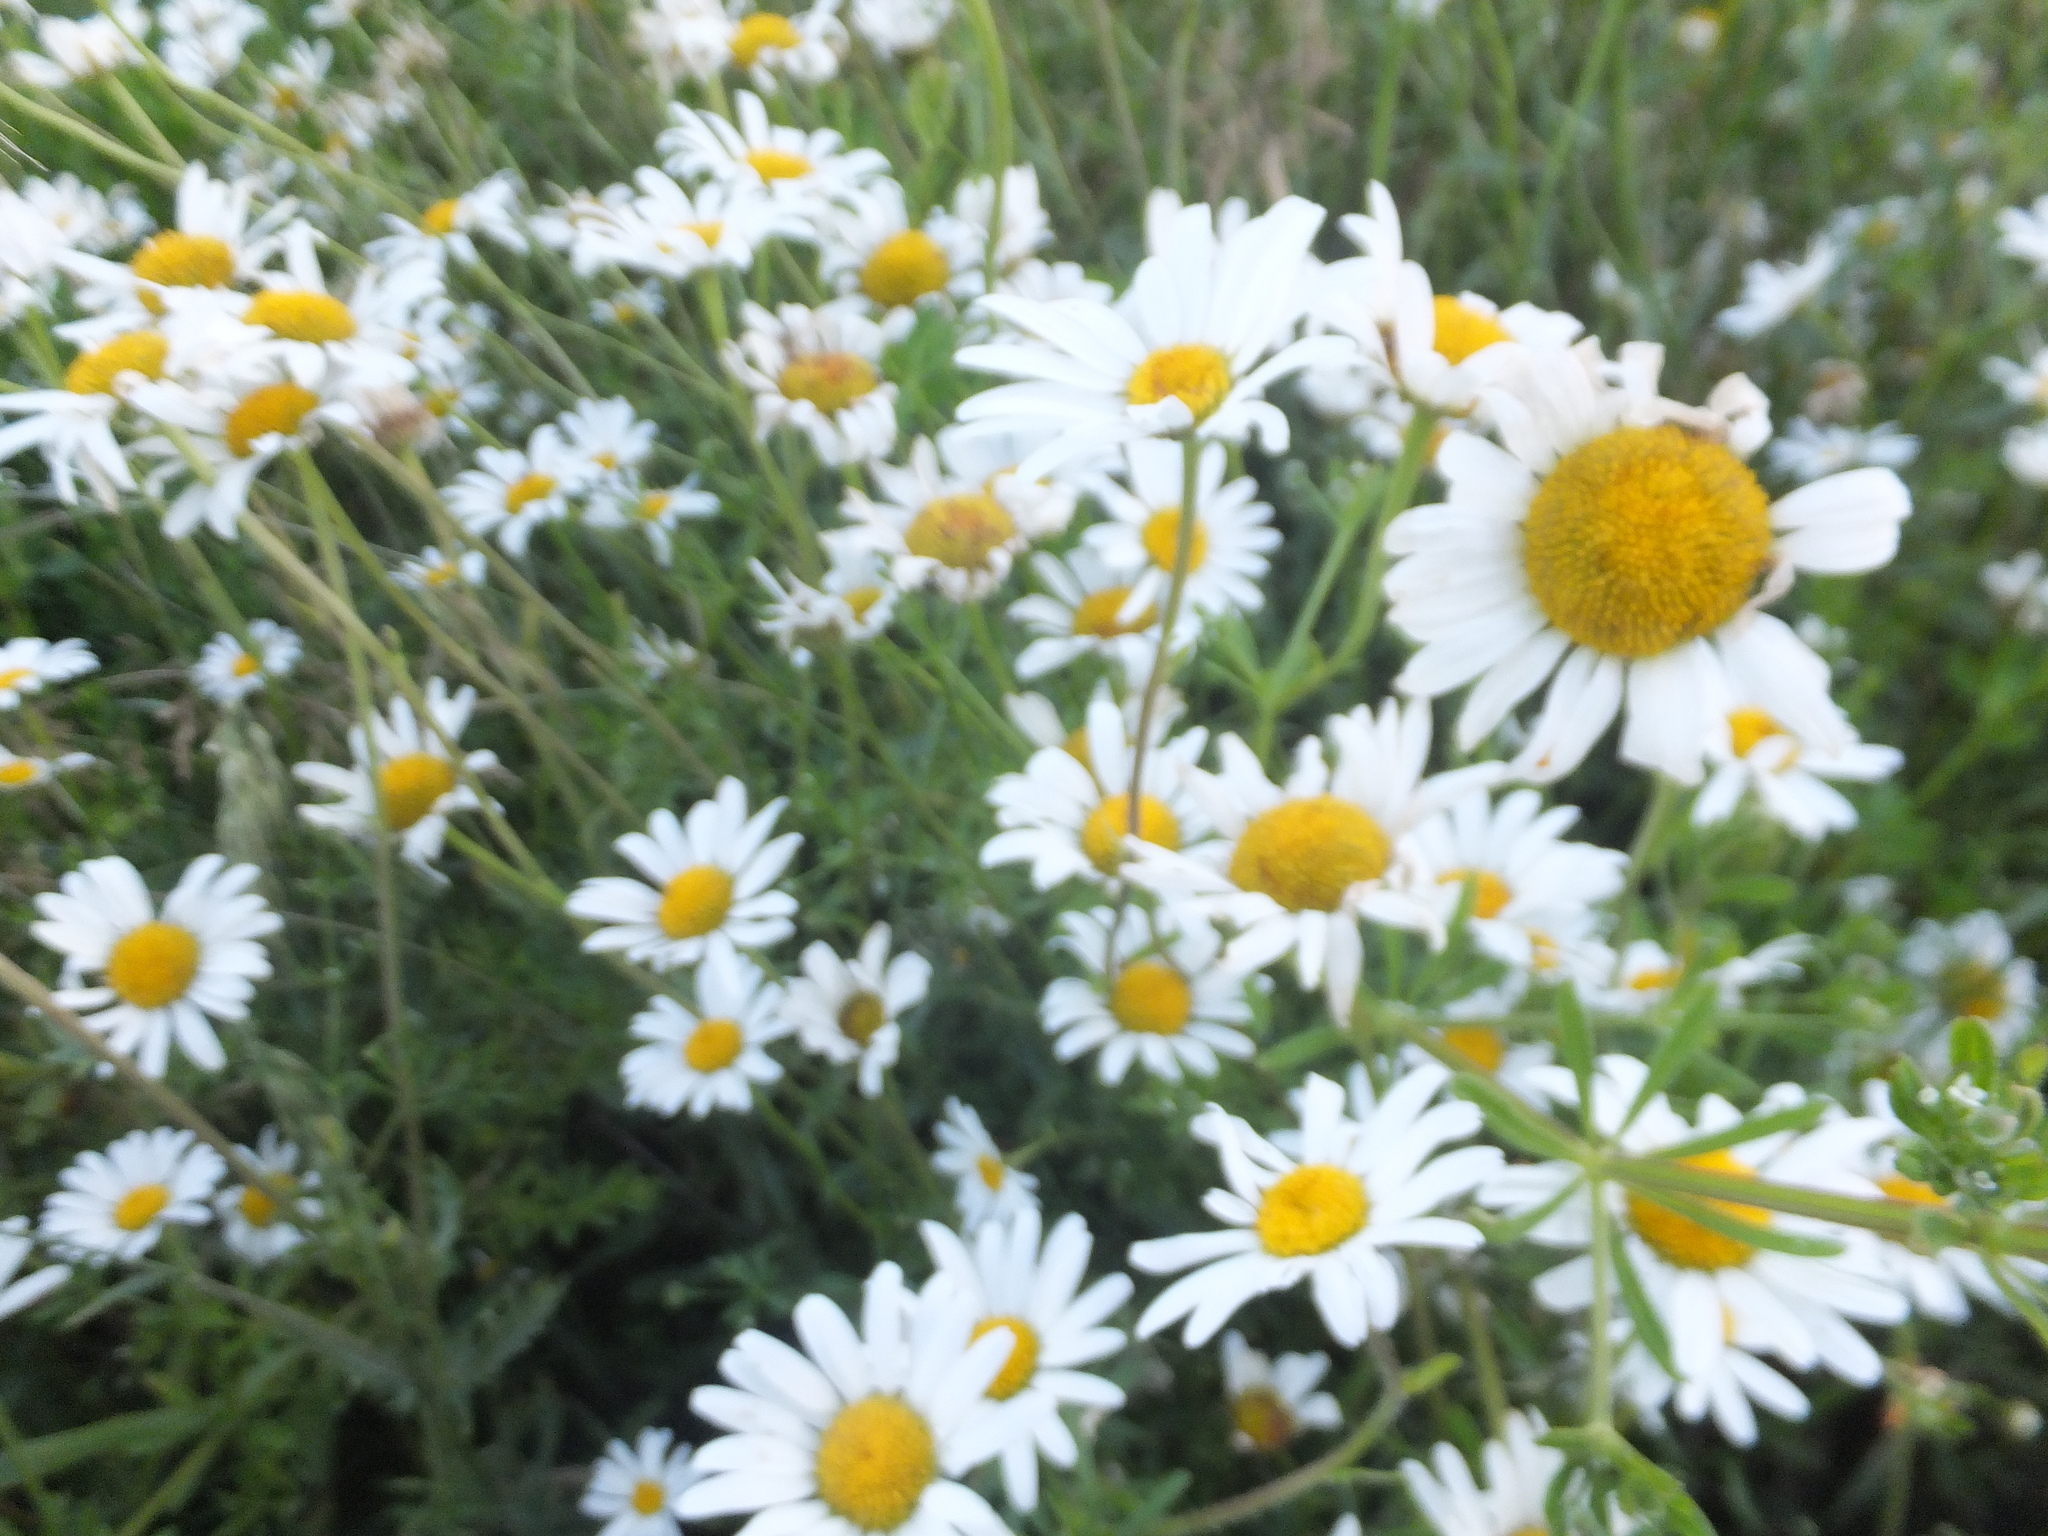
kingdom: Plantae
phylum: Tracheophyta
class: Magnoliopsida
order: Asterales
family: Asteraceae
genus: Leucanthemum
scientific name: Leucanthemum vulgare
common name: Oxeye daisy
